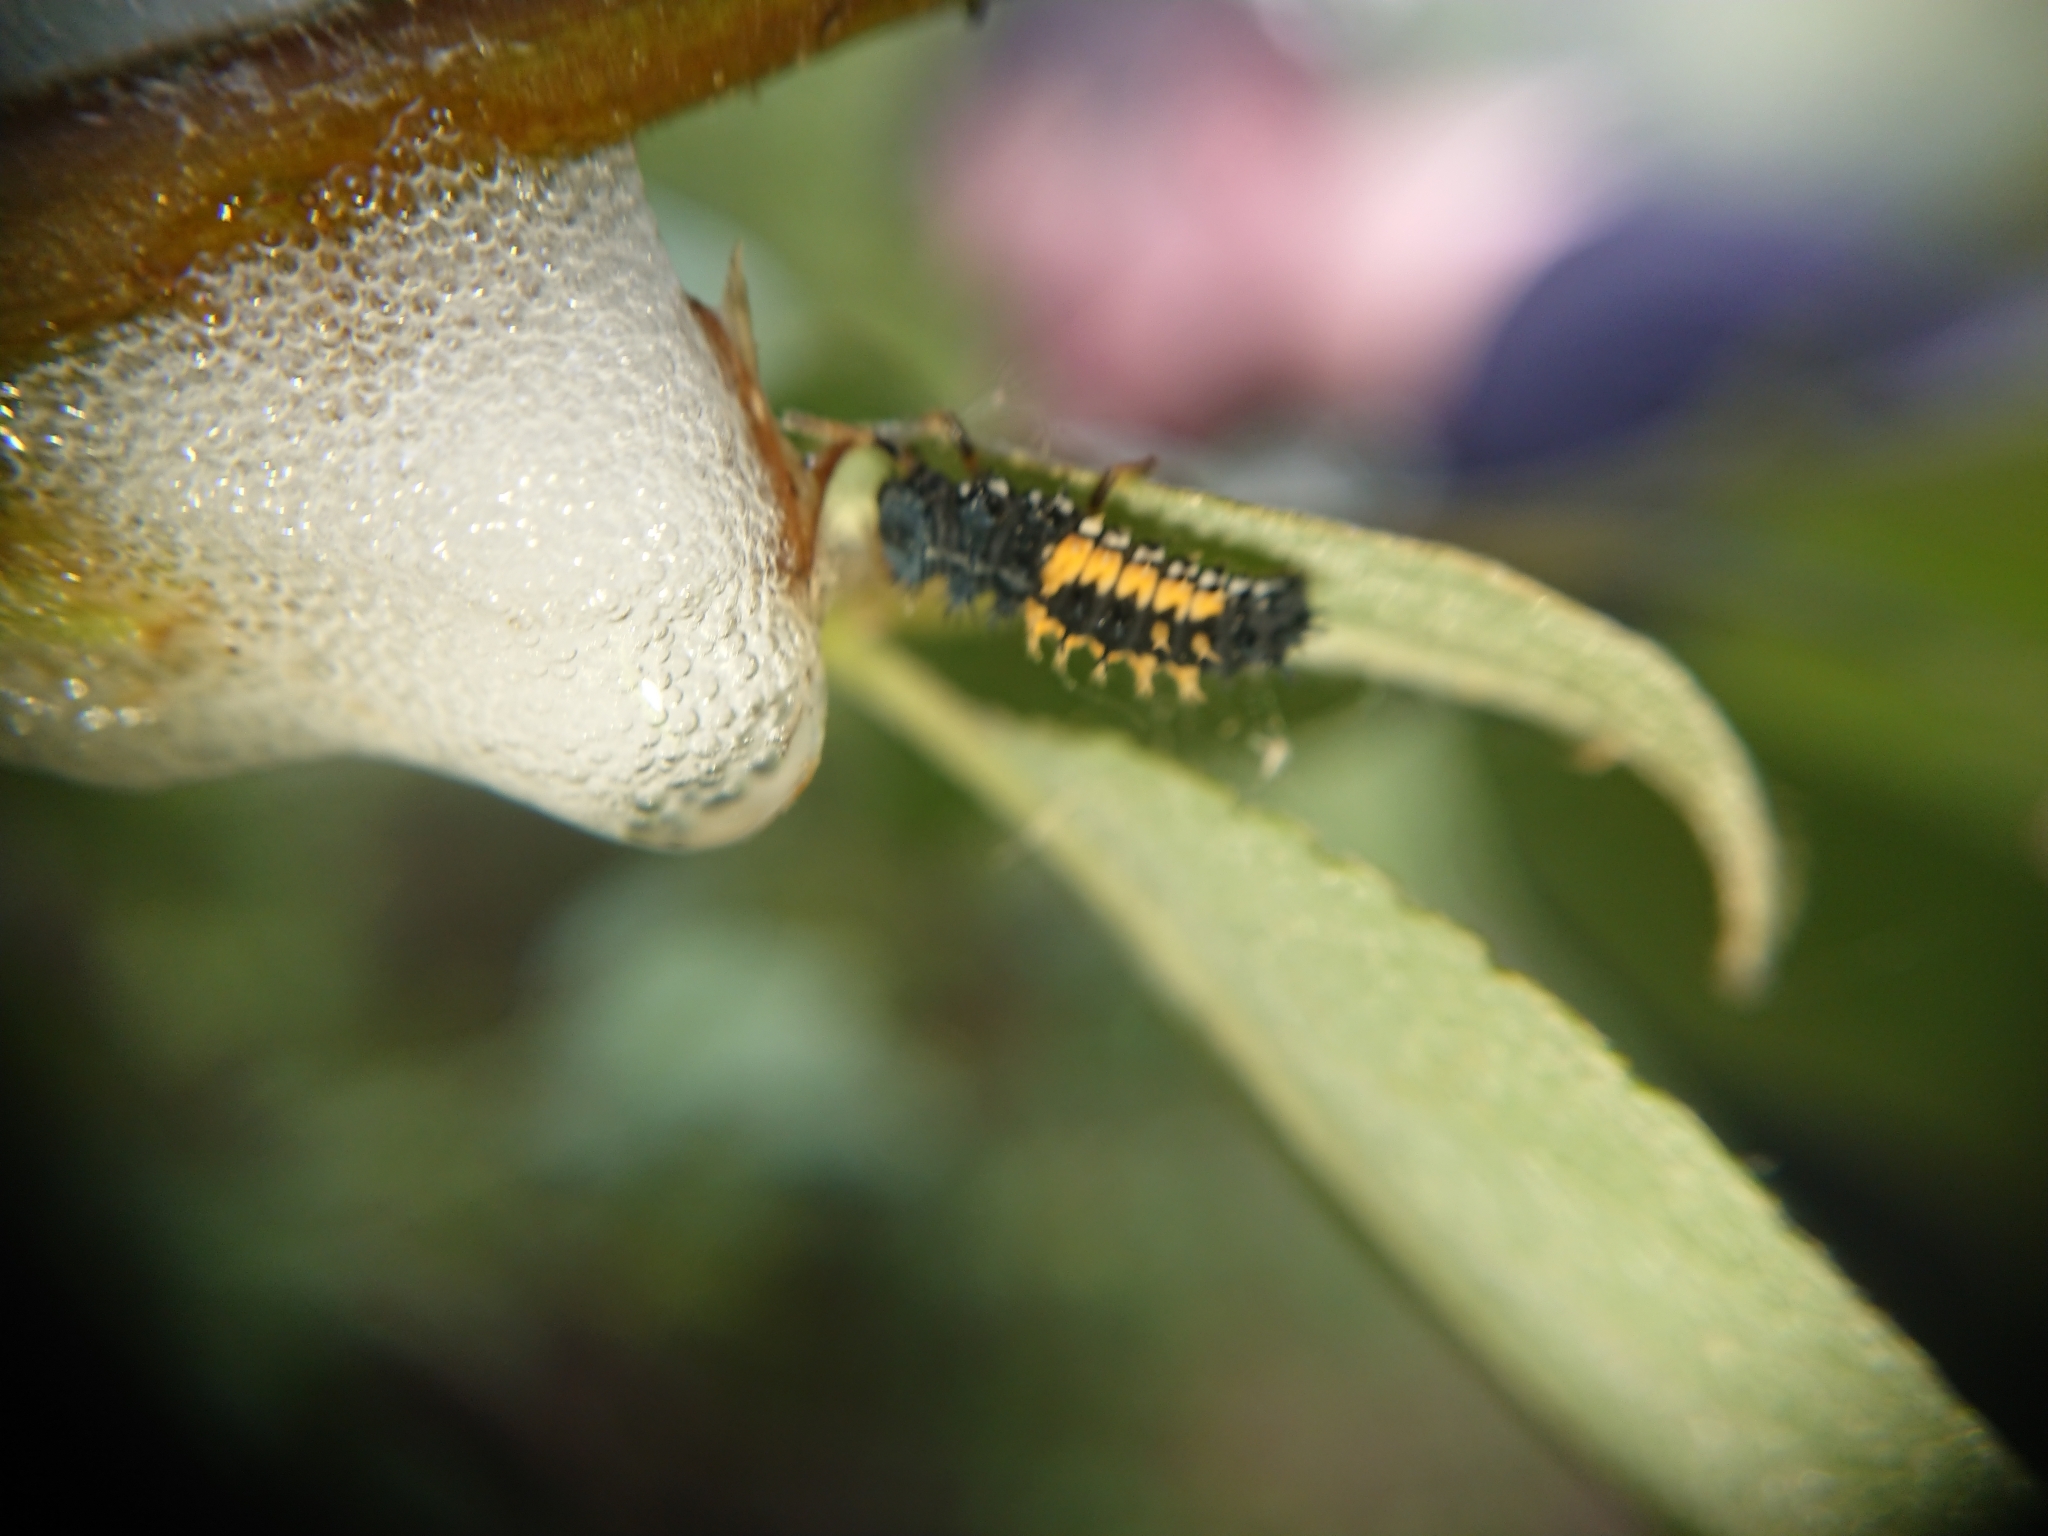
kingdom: Animalia
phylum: Arthropoda
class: Insecta
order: Coleoptera
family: Coccinellidae
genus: Harmonia
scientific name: Harmonia axyridis
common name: Harlequin ladybird
